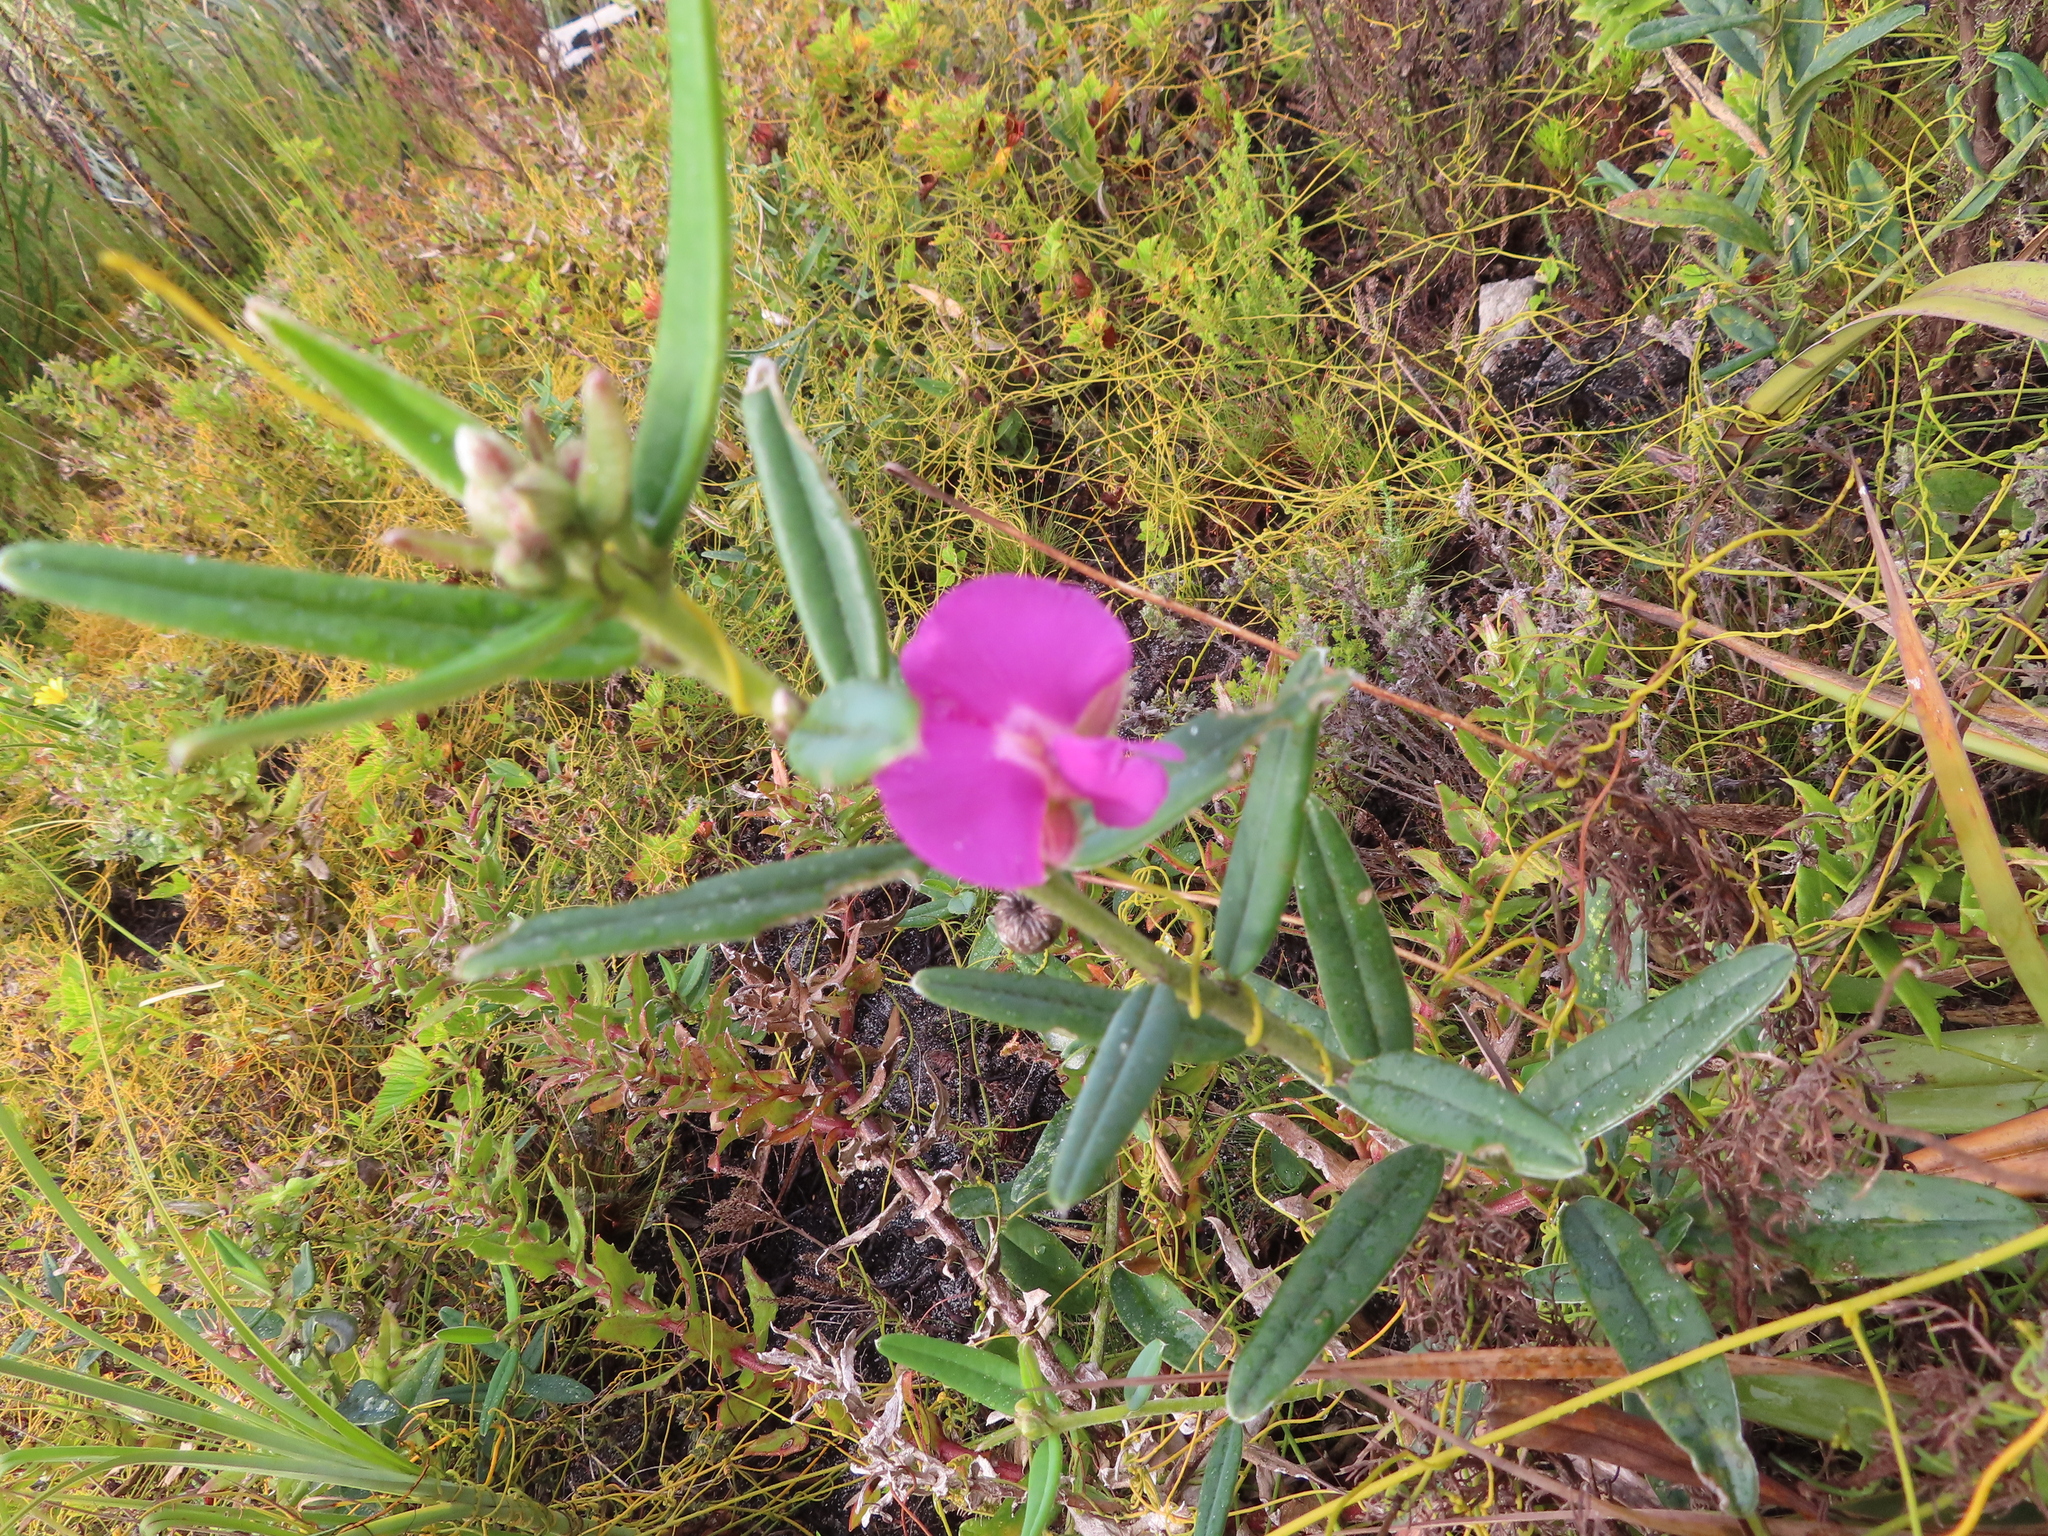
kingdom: Plantae
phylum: Tracheophyta
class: Magnoliopsida
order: Fabales
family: Fabaceae
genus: Podalyria
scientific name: Podalyria oleifolia
